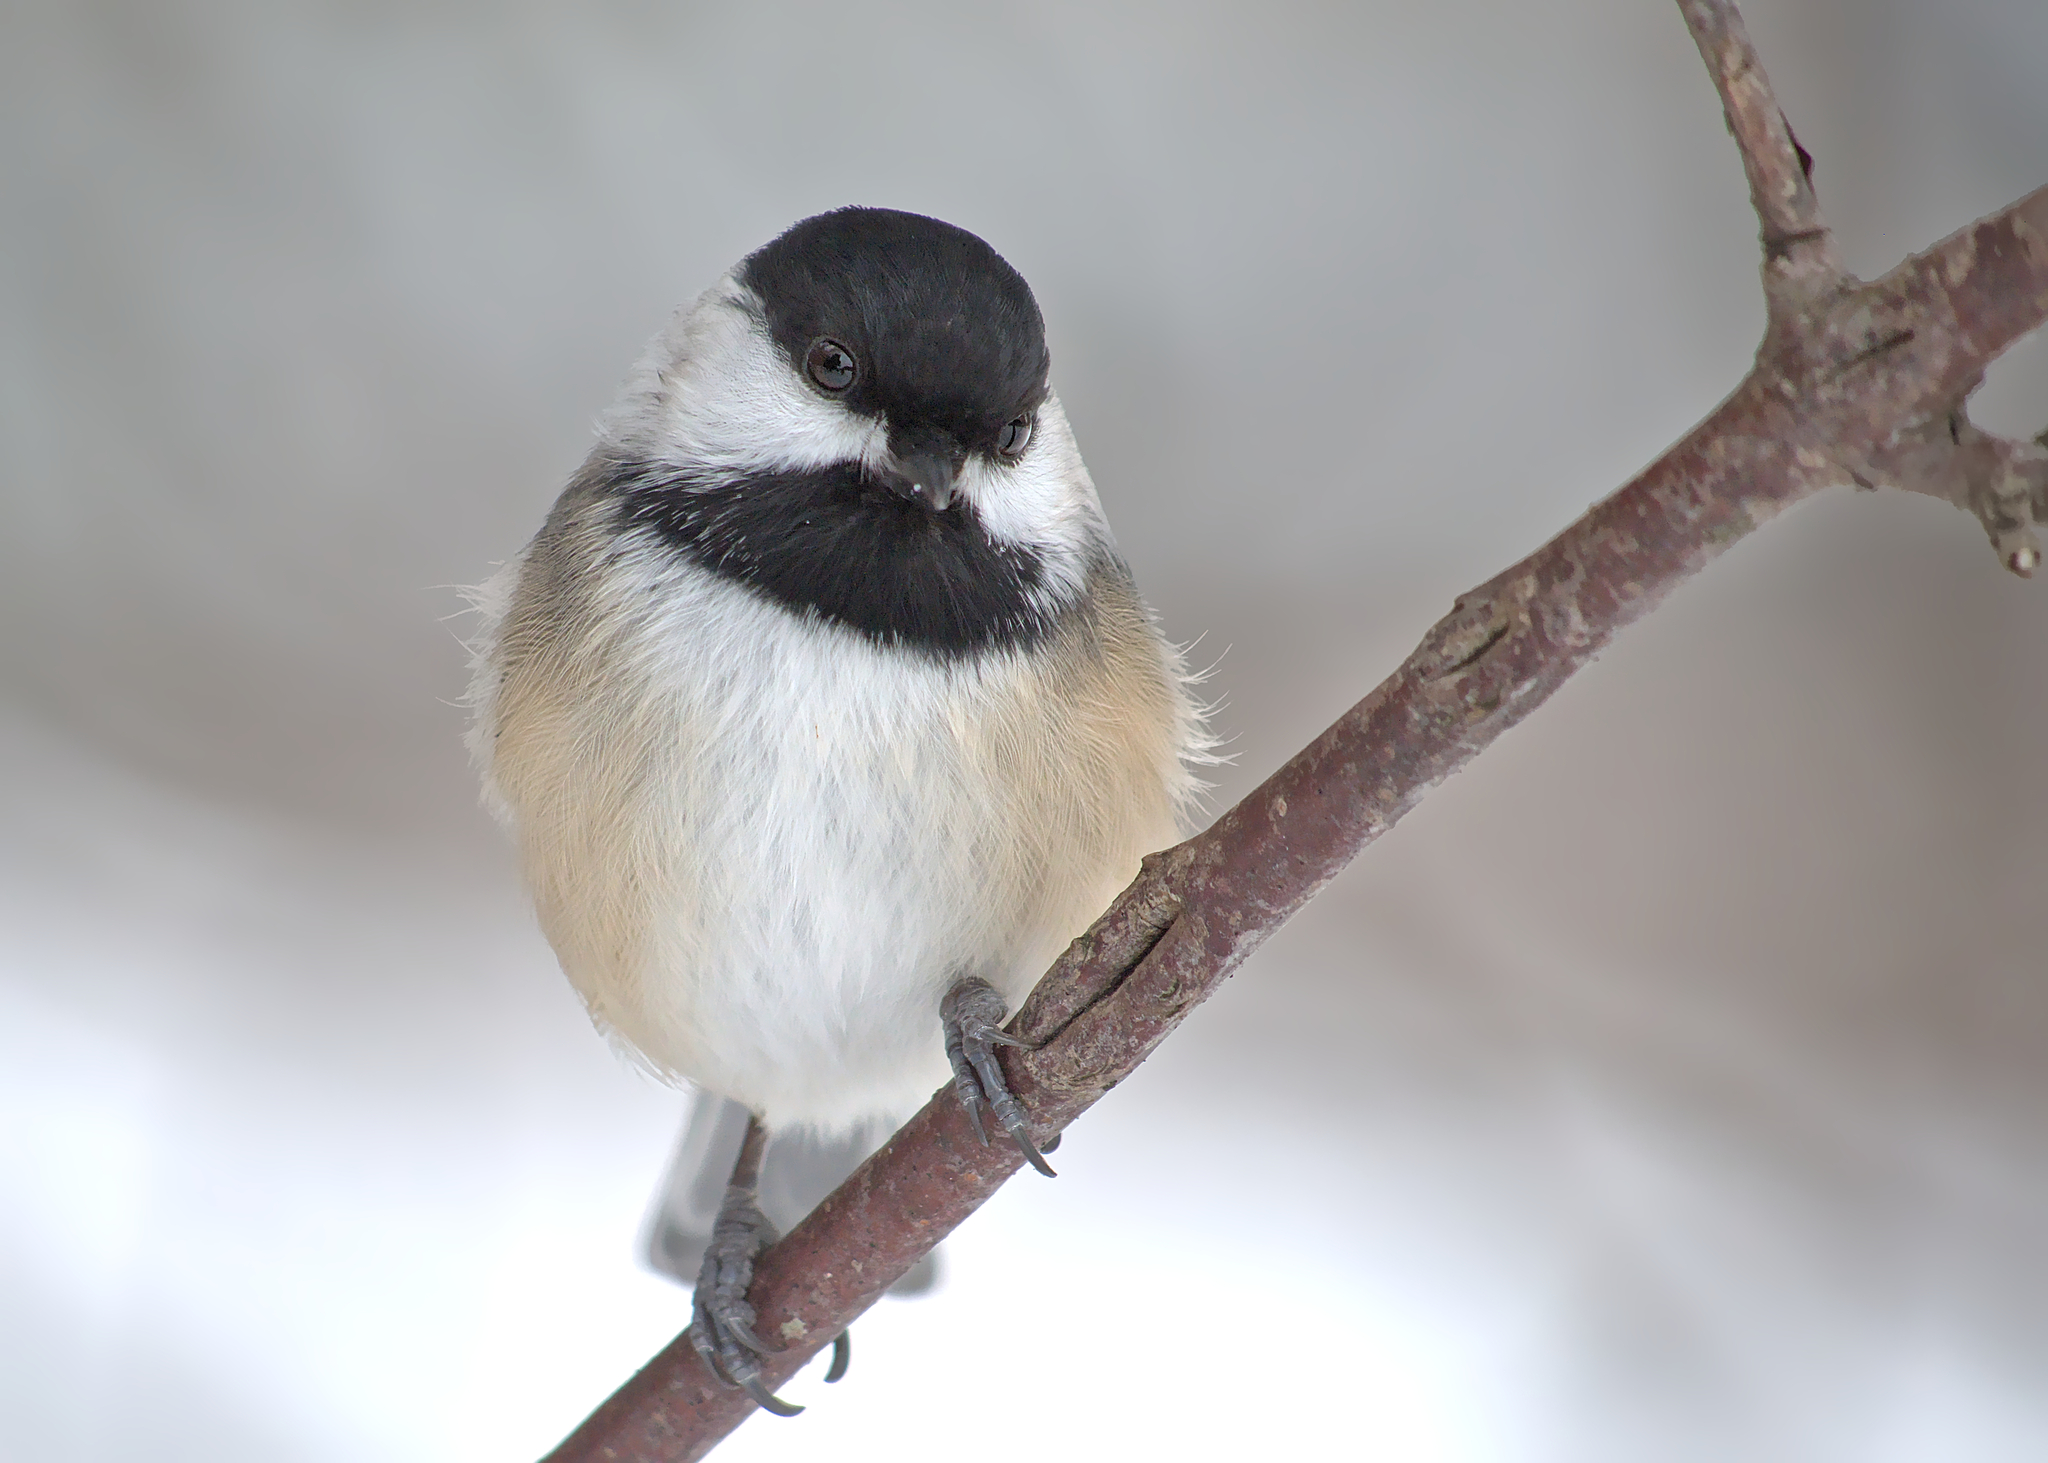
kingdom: Animalia
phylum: Chordata
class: Aves
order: Passeriformes
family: Paridae
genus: Poecile
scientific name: Poecile atricapillus
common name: Black-capped chickadee
